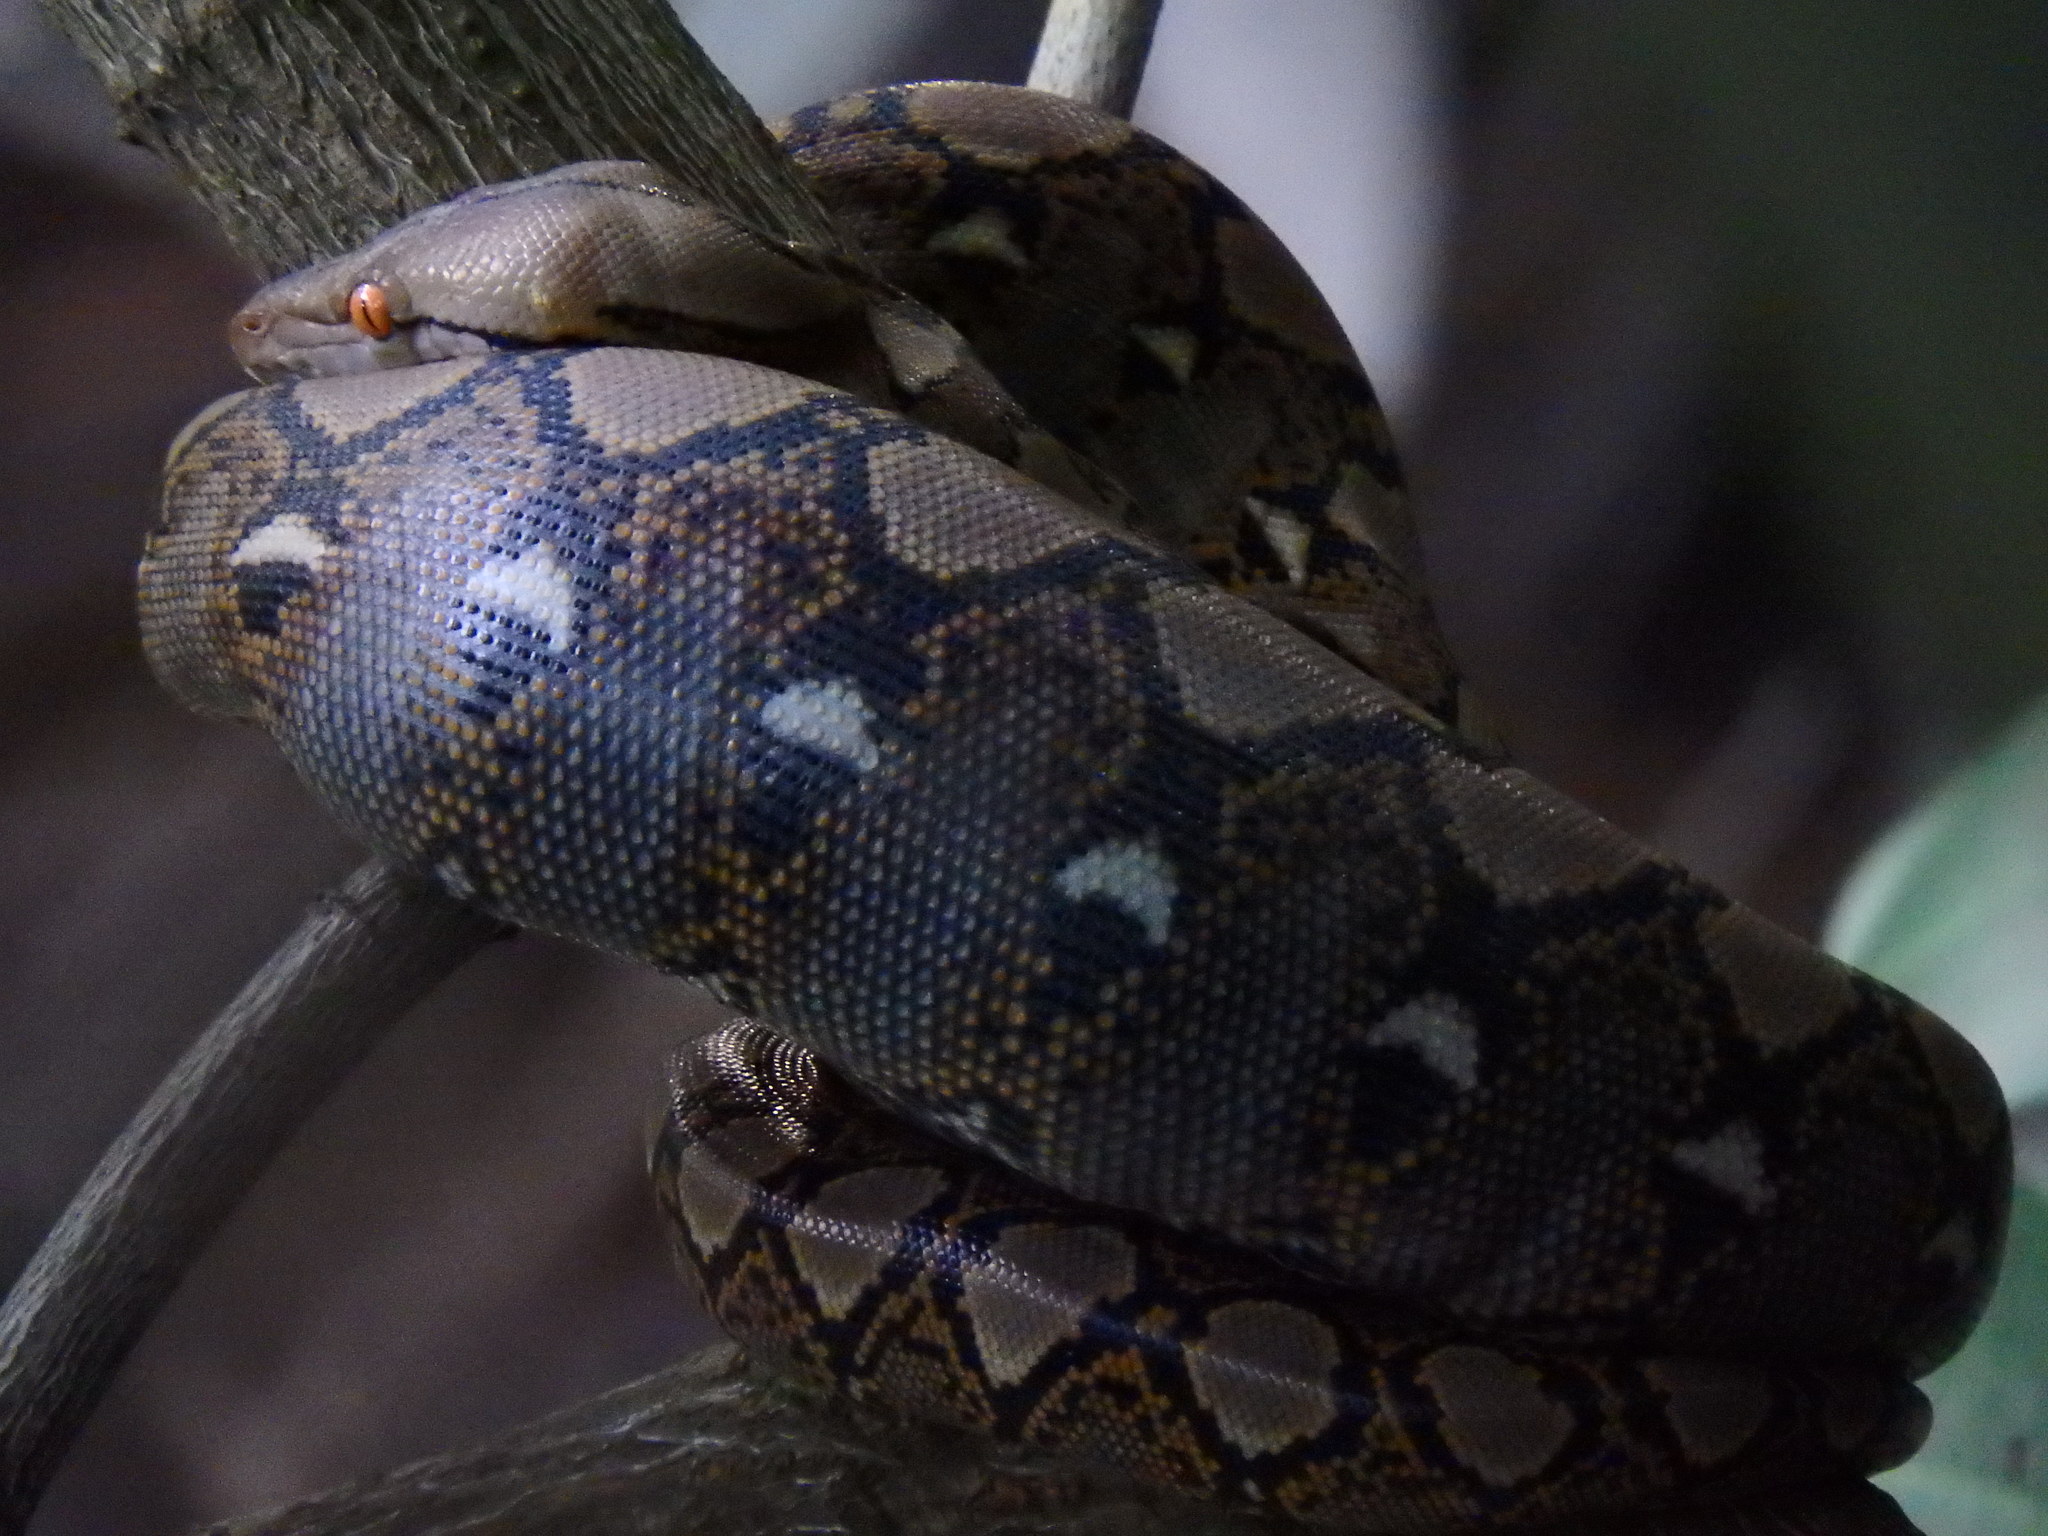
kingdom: Animalia
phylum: Chordata
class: Squamata
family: Pythonidae
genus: Malayopython
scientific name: Malayopython reticulatus
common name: Reticulated python
